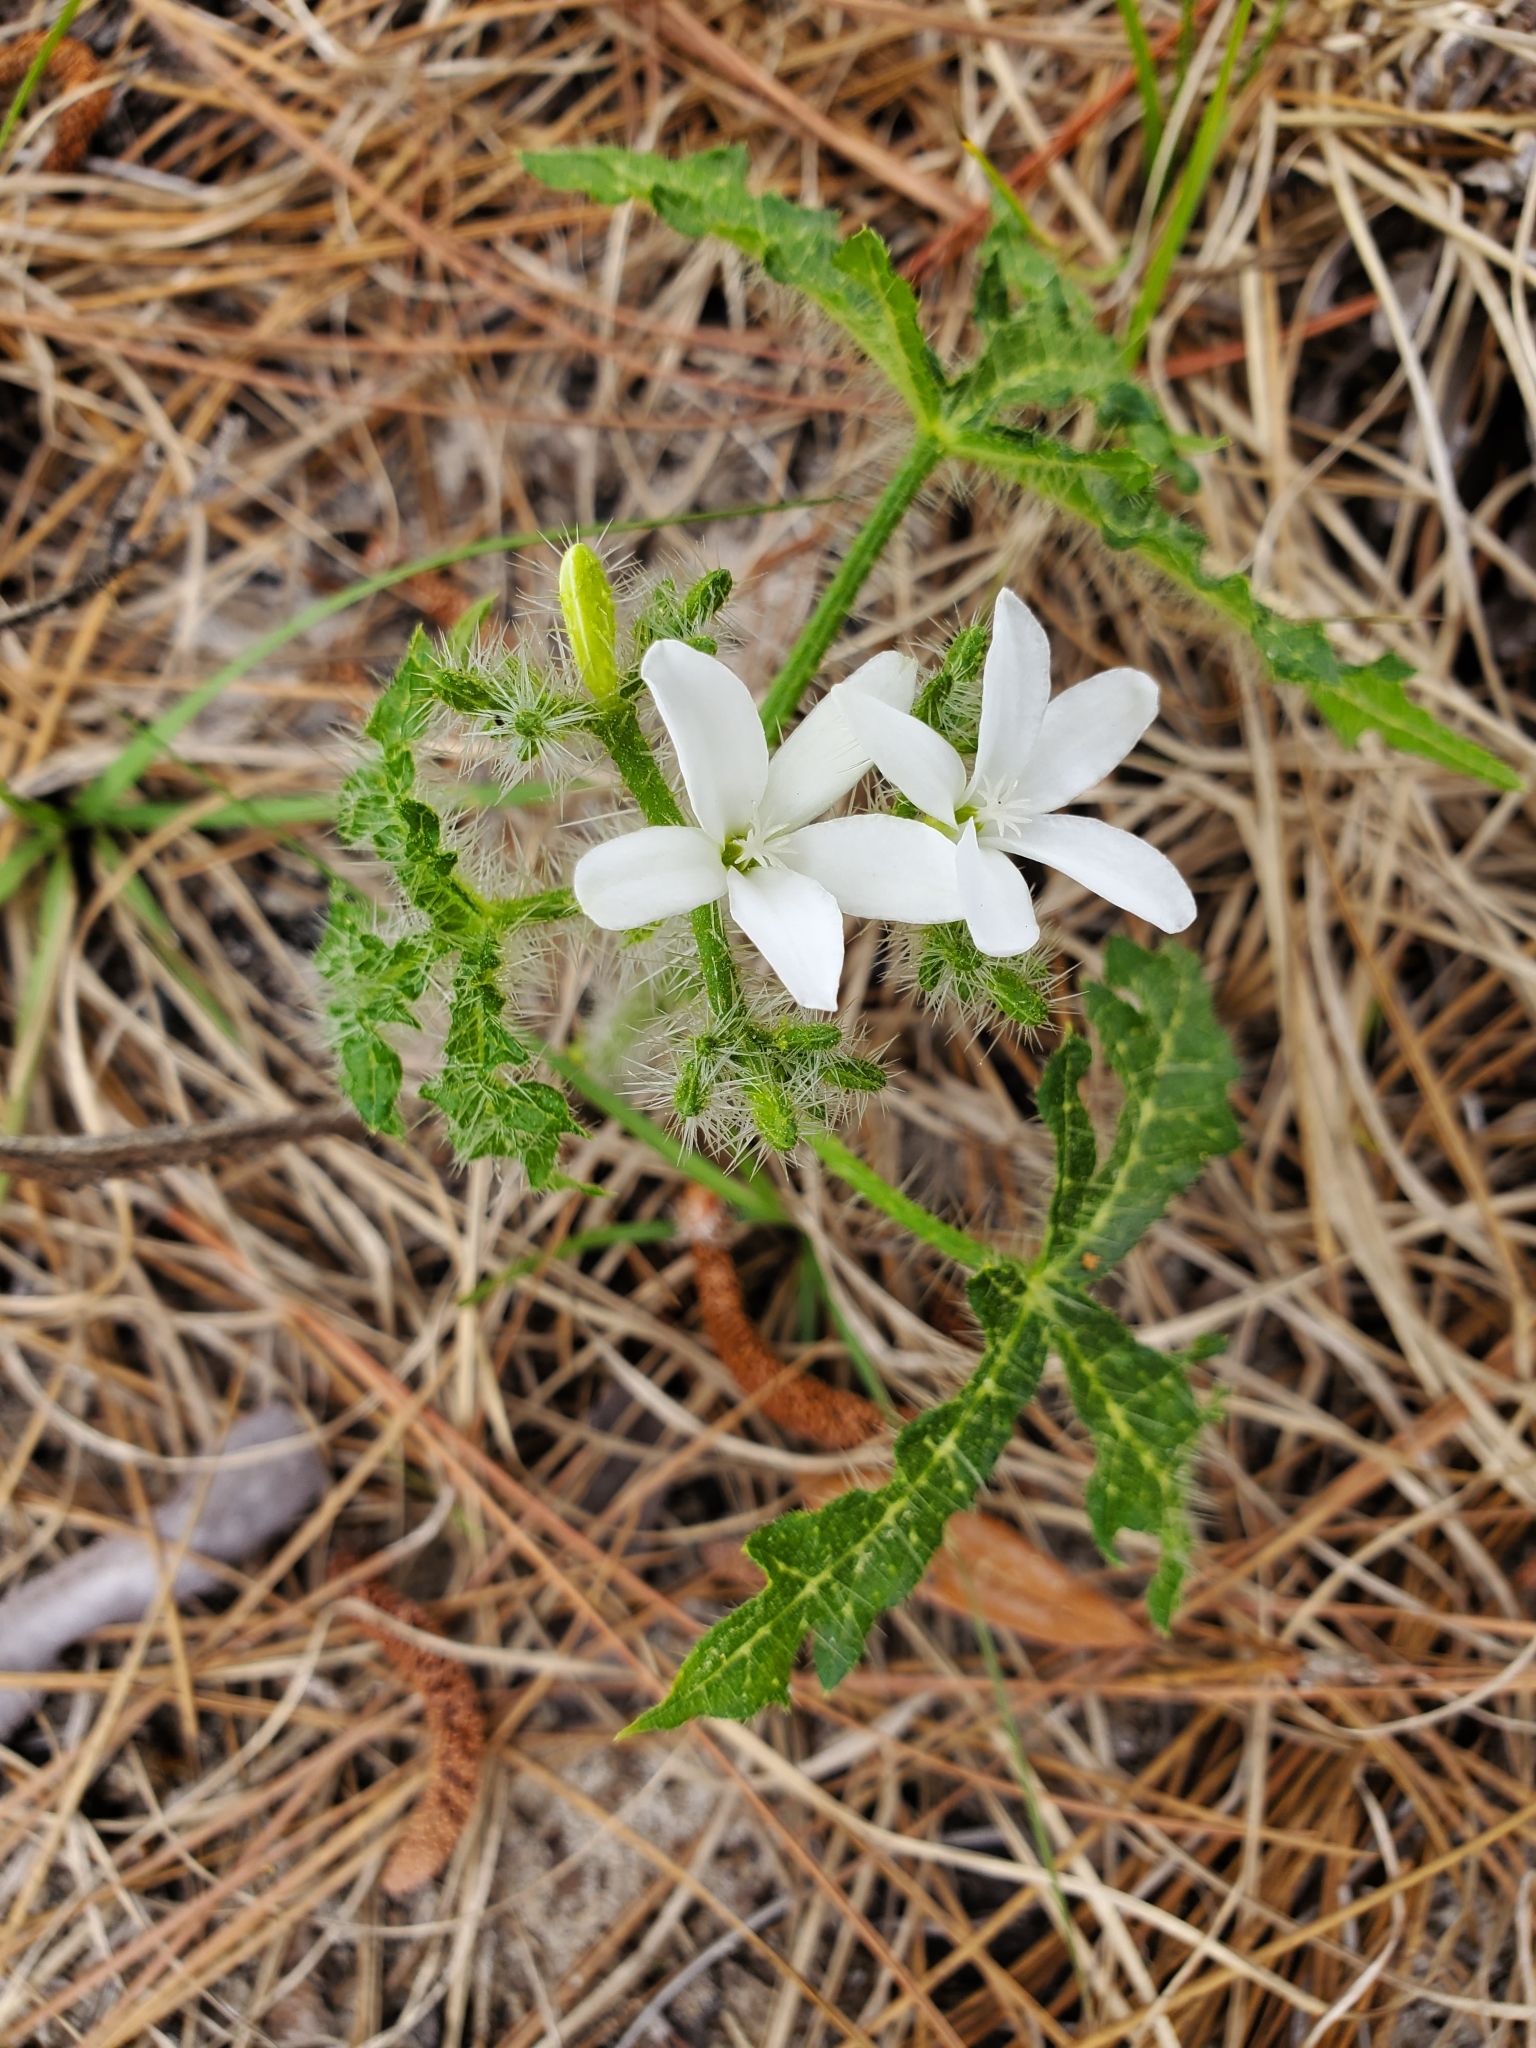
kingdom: Plantae
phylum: Tracheophyta
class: Magnoliopsida
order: Malpighiales
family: Euphorbiaceae
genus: Cnidoscolus
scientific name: Cnidoscolus stimulosus
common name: Bull-nettle
